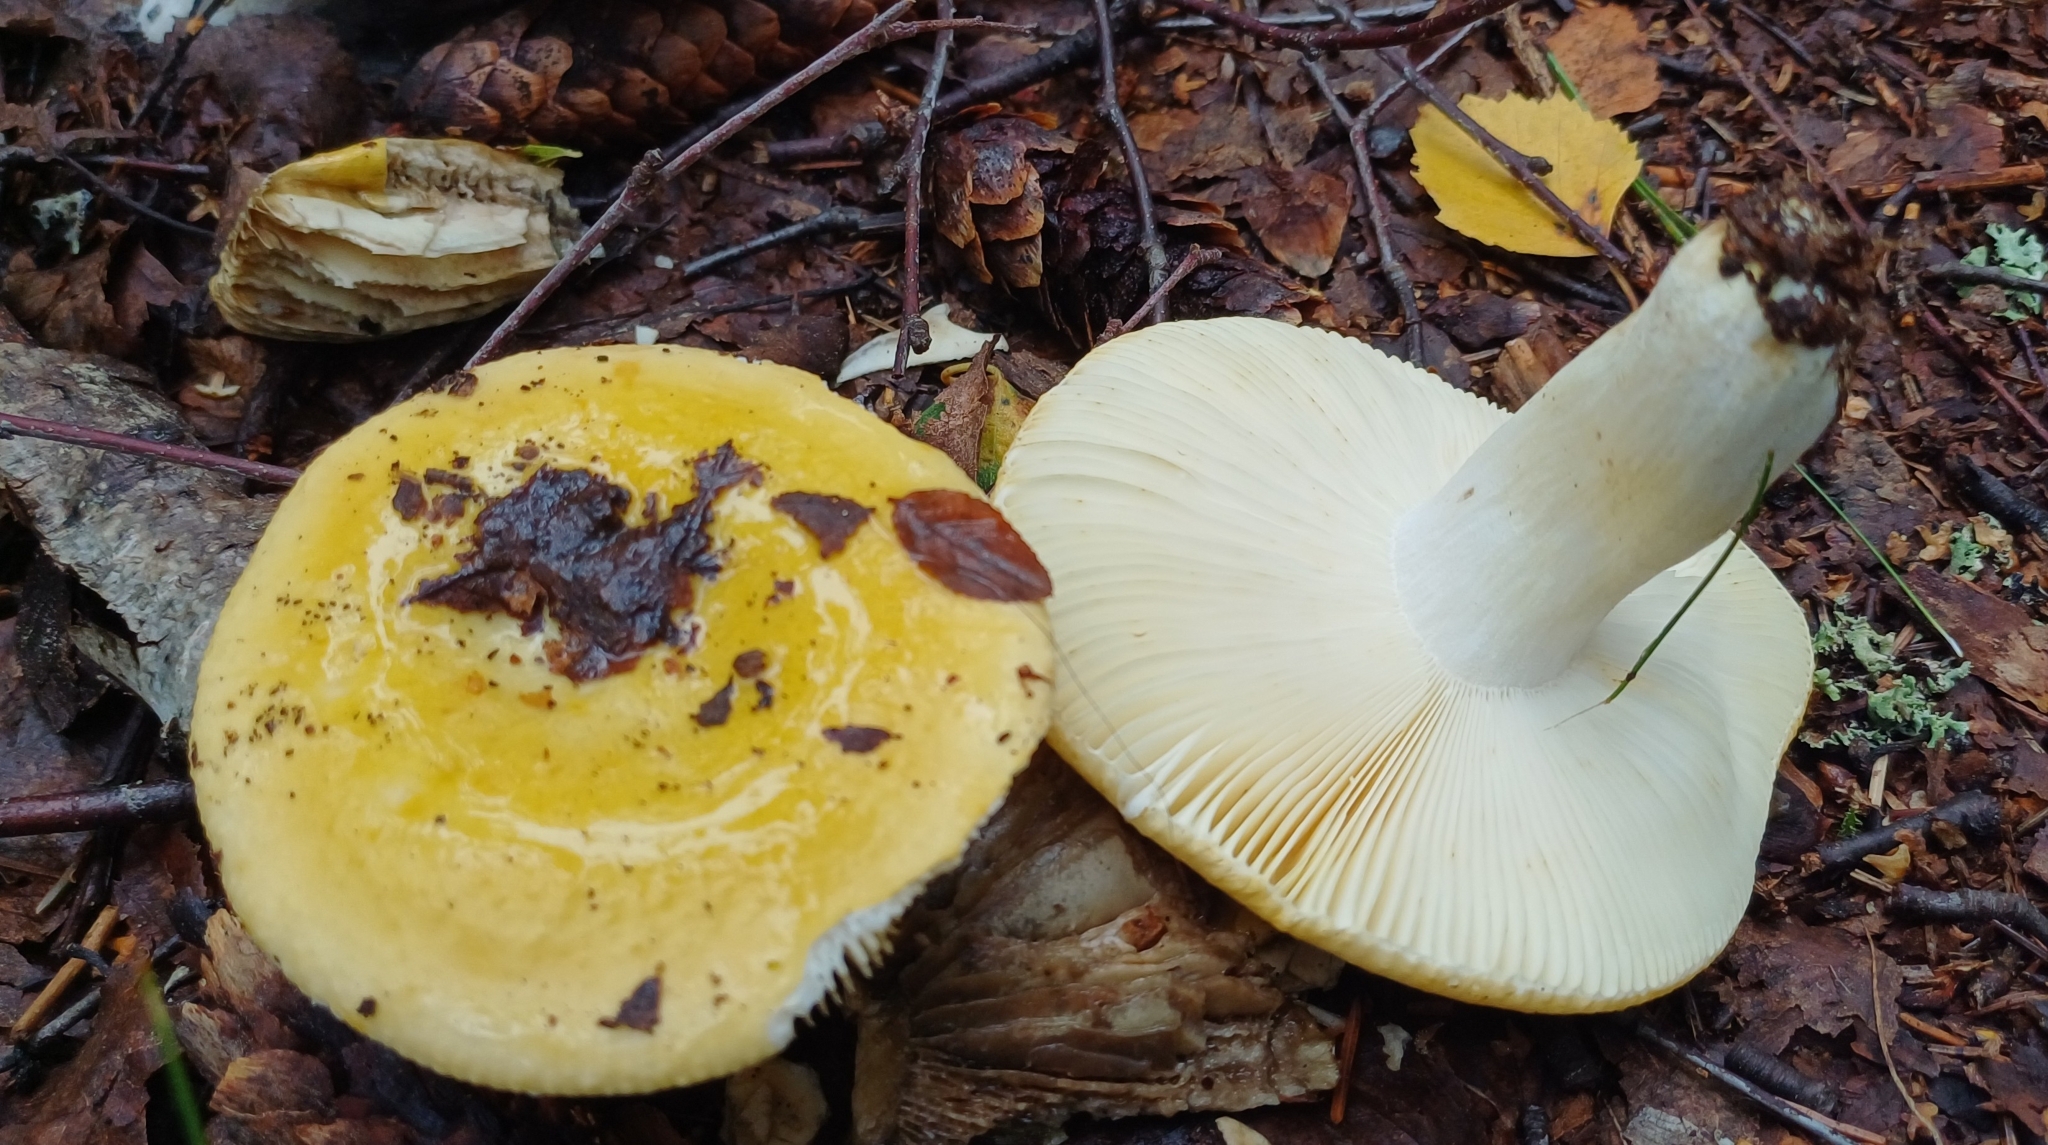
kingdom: Fungi
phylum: Basidiomycota
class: Agaricomycetes
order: Russulales
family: Russulaceae
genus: Russula
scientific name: Russula claroflava
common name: The yellow swamp brittlegill
